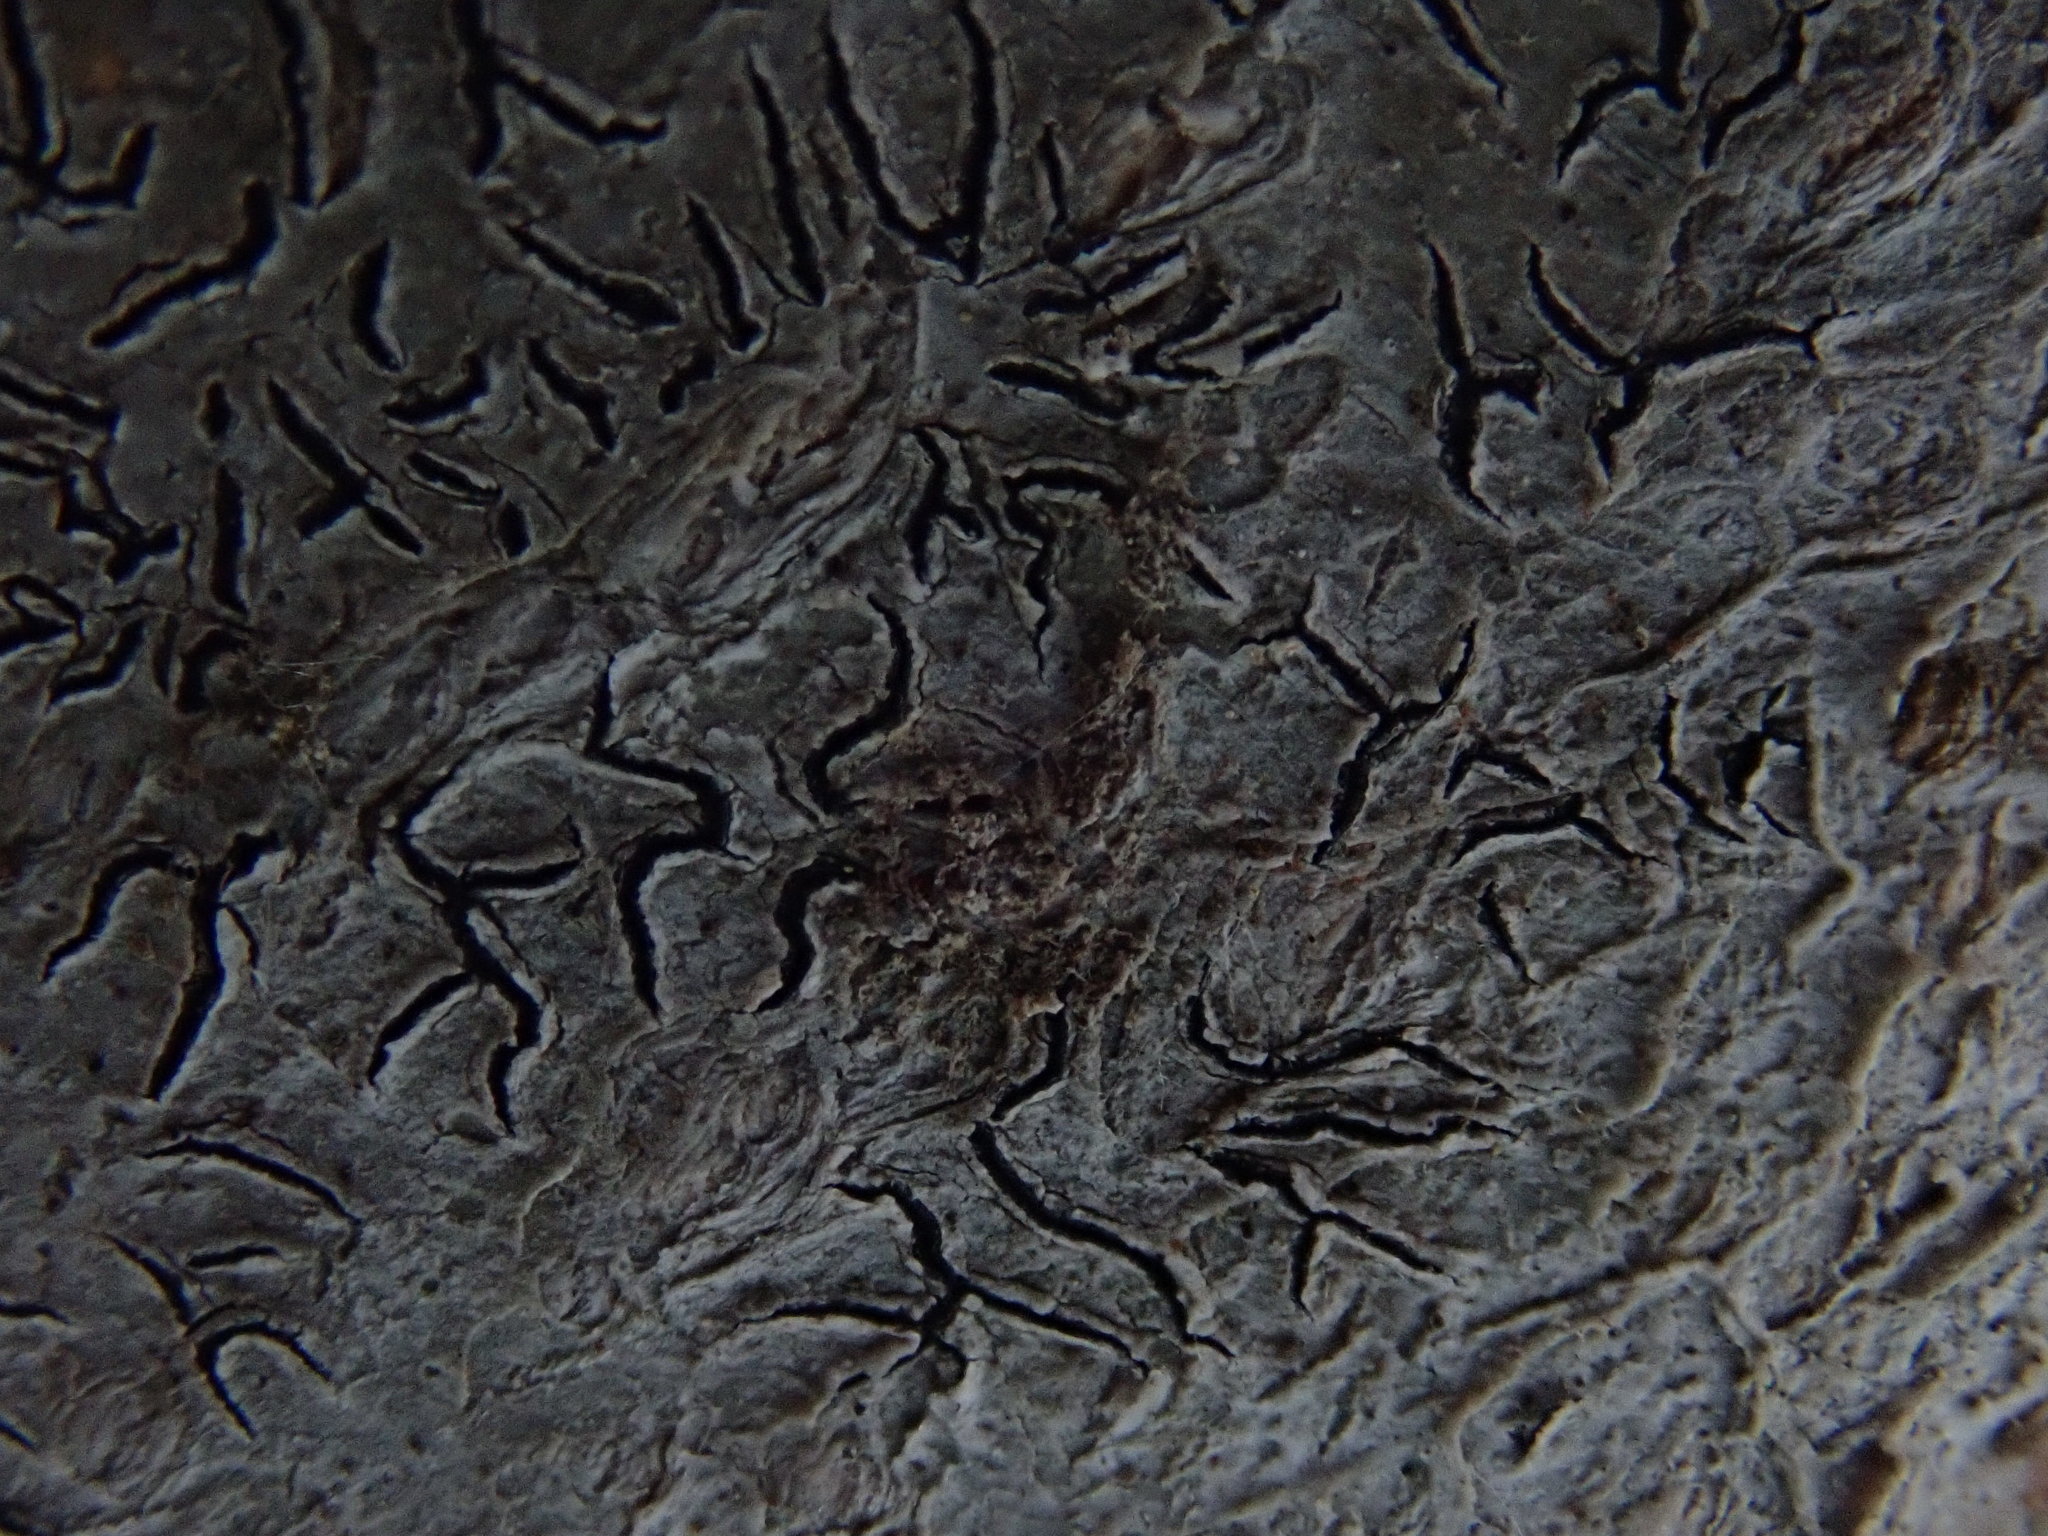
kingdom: Fungi
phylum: Ascomycota
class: Lecanoromycetes
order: Ostropales
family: Graphidaceae
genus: Graphis
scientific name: Graphis scripta
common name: Script lichen
